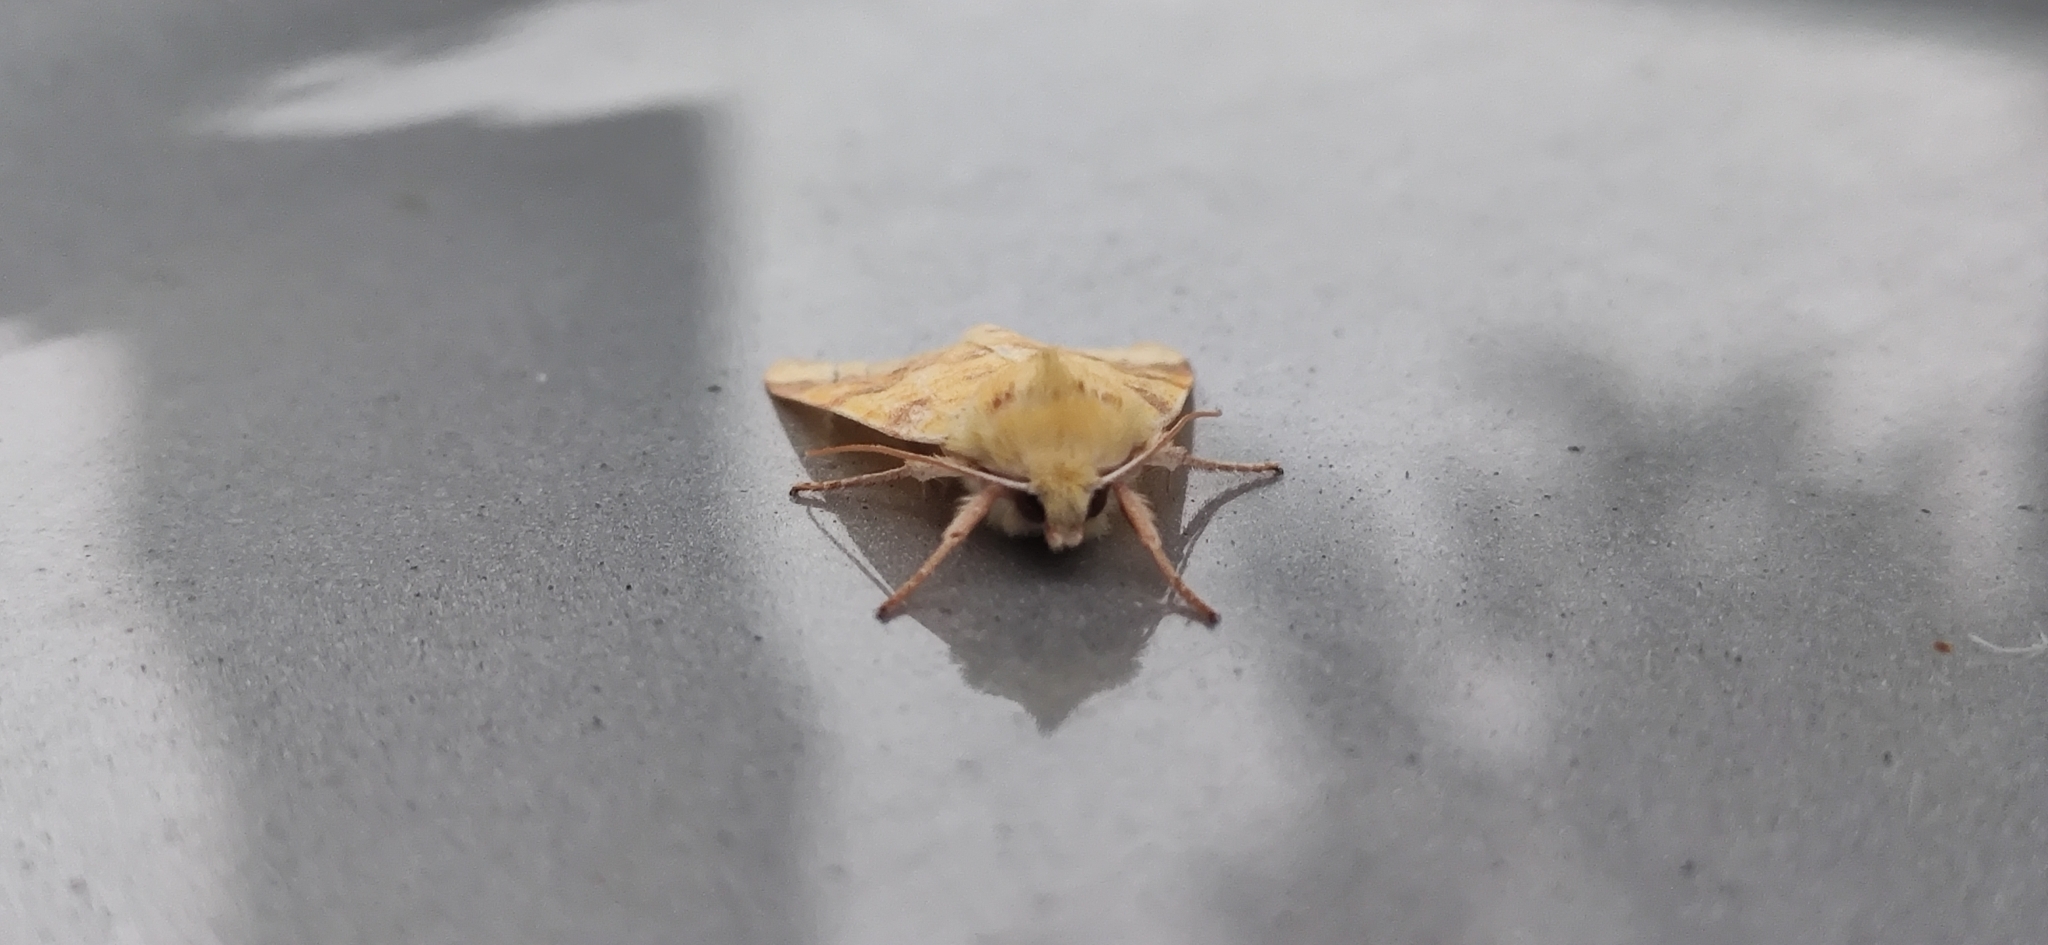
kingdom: Animalia
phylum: Arthropoda
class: Insecta
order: Lepidoptera
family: Noctuidae
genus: Xanthia
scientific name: Xanthia icteritia
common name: The sallow
